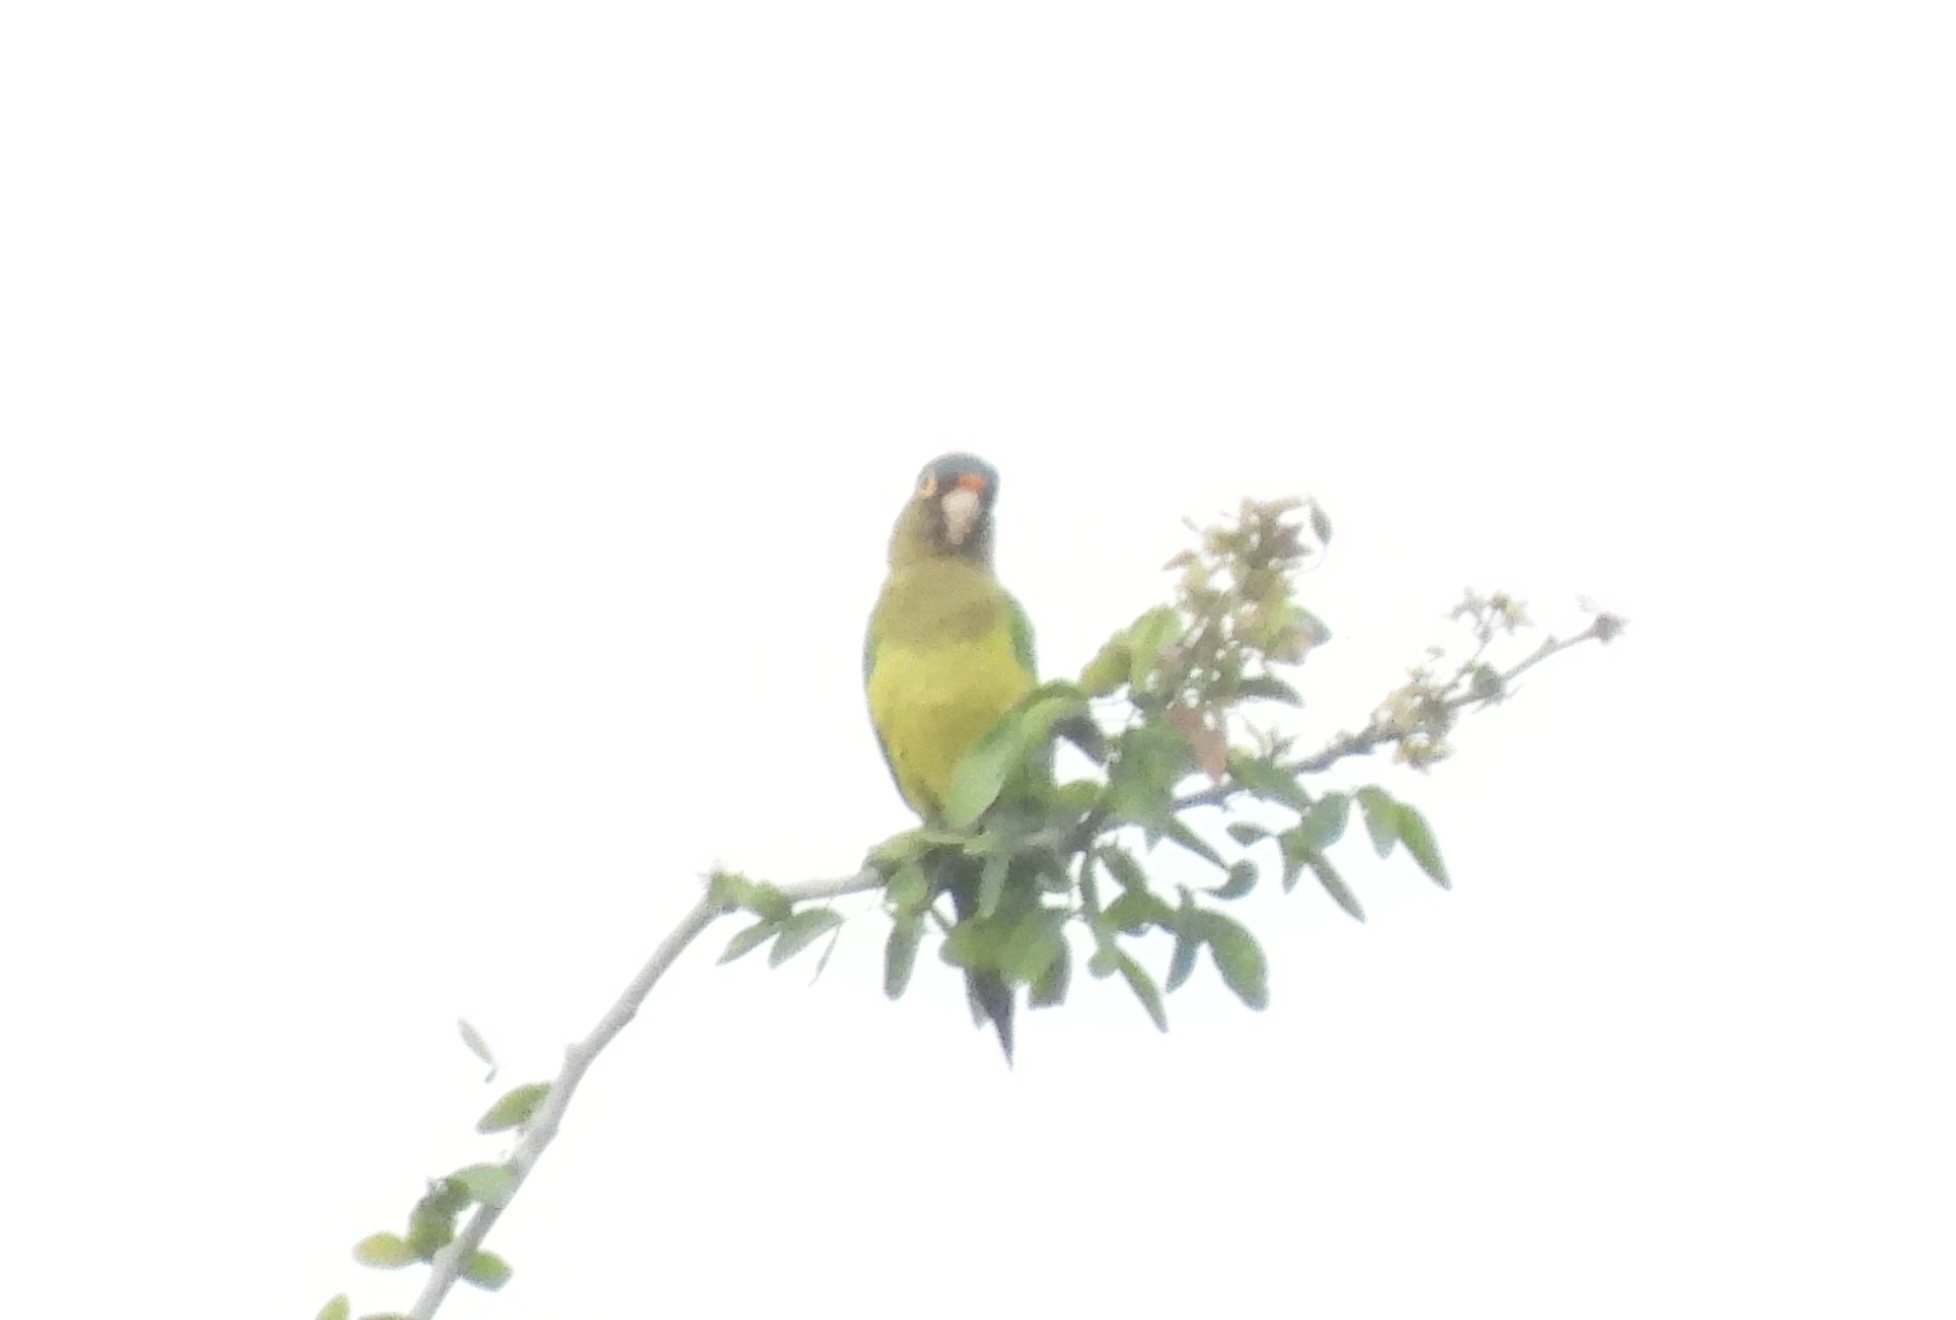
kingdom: Animalia
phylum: Chordata
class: Aves
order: Psittaciformes
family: Psittacidae
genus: Aratinga
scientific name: Aratinga canicularis
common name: Orange-fronted parakeet
